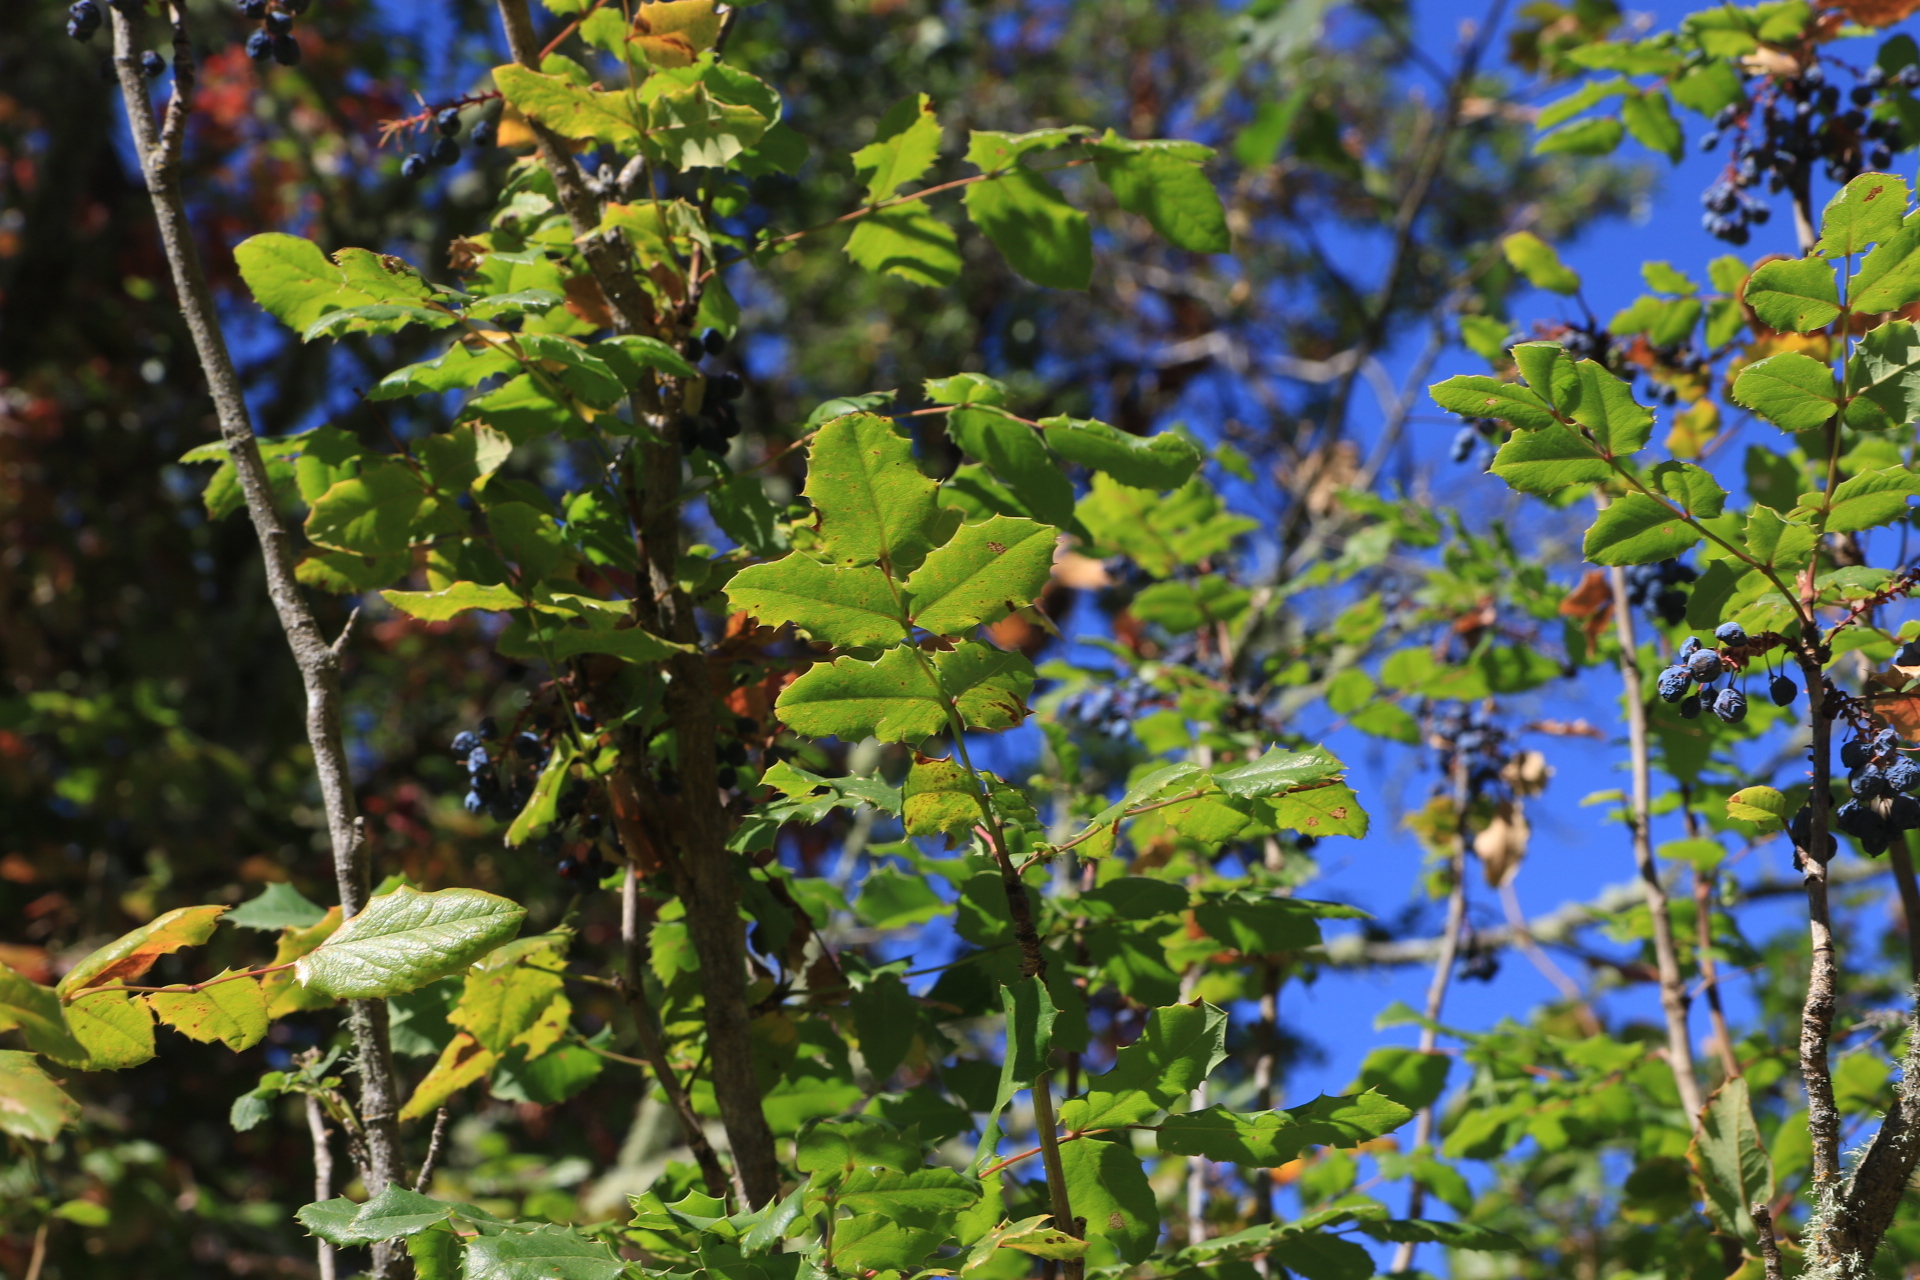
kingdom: Plantae
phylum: Tracheophyta
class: Magnoliopsida
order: Ranunculales
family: Berberidaceae
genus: Mahonia
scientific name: Mahonia aquifolium
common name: Oregon-grape
